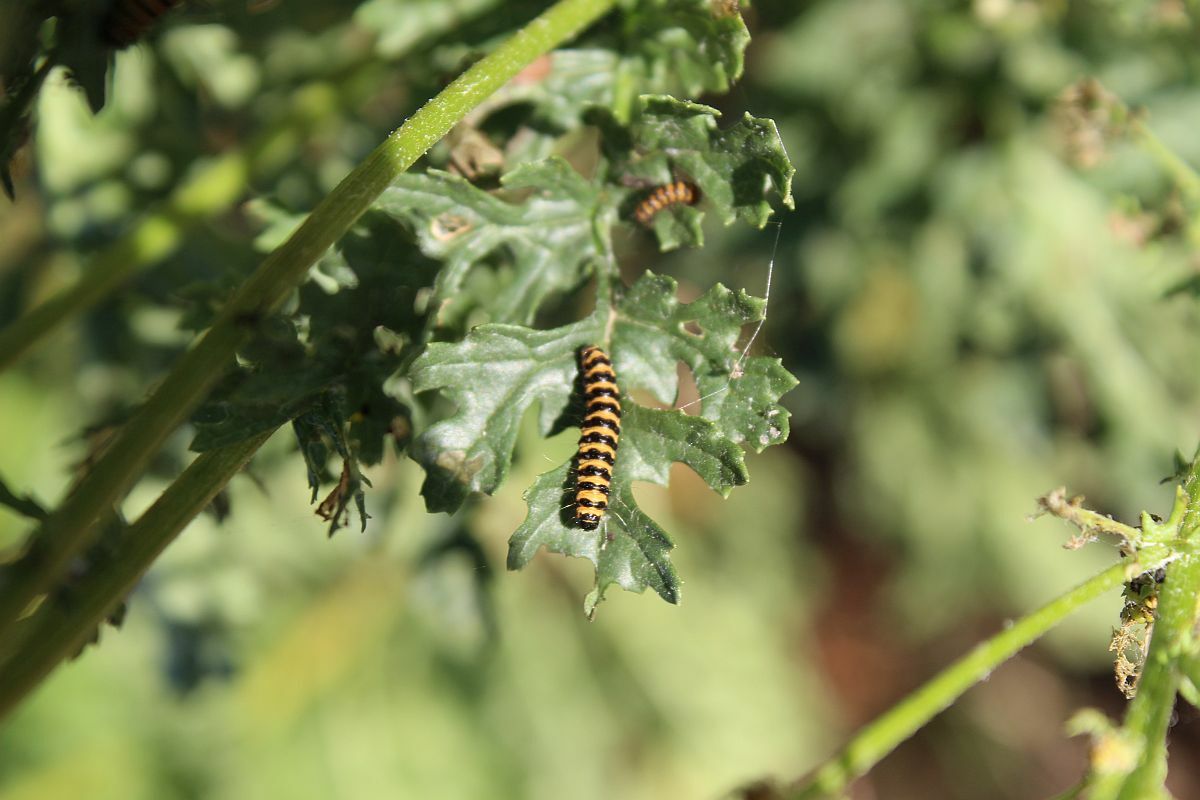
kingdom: Animalia
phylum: Arthropoda
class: Insecta
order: Lepidoptera
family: Erebidae
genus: Tyria
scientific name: Tyria jacobaeae
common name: Cinnabar
